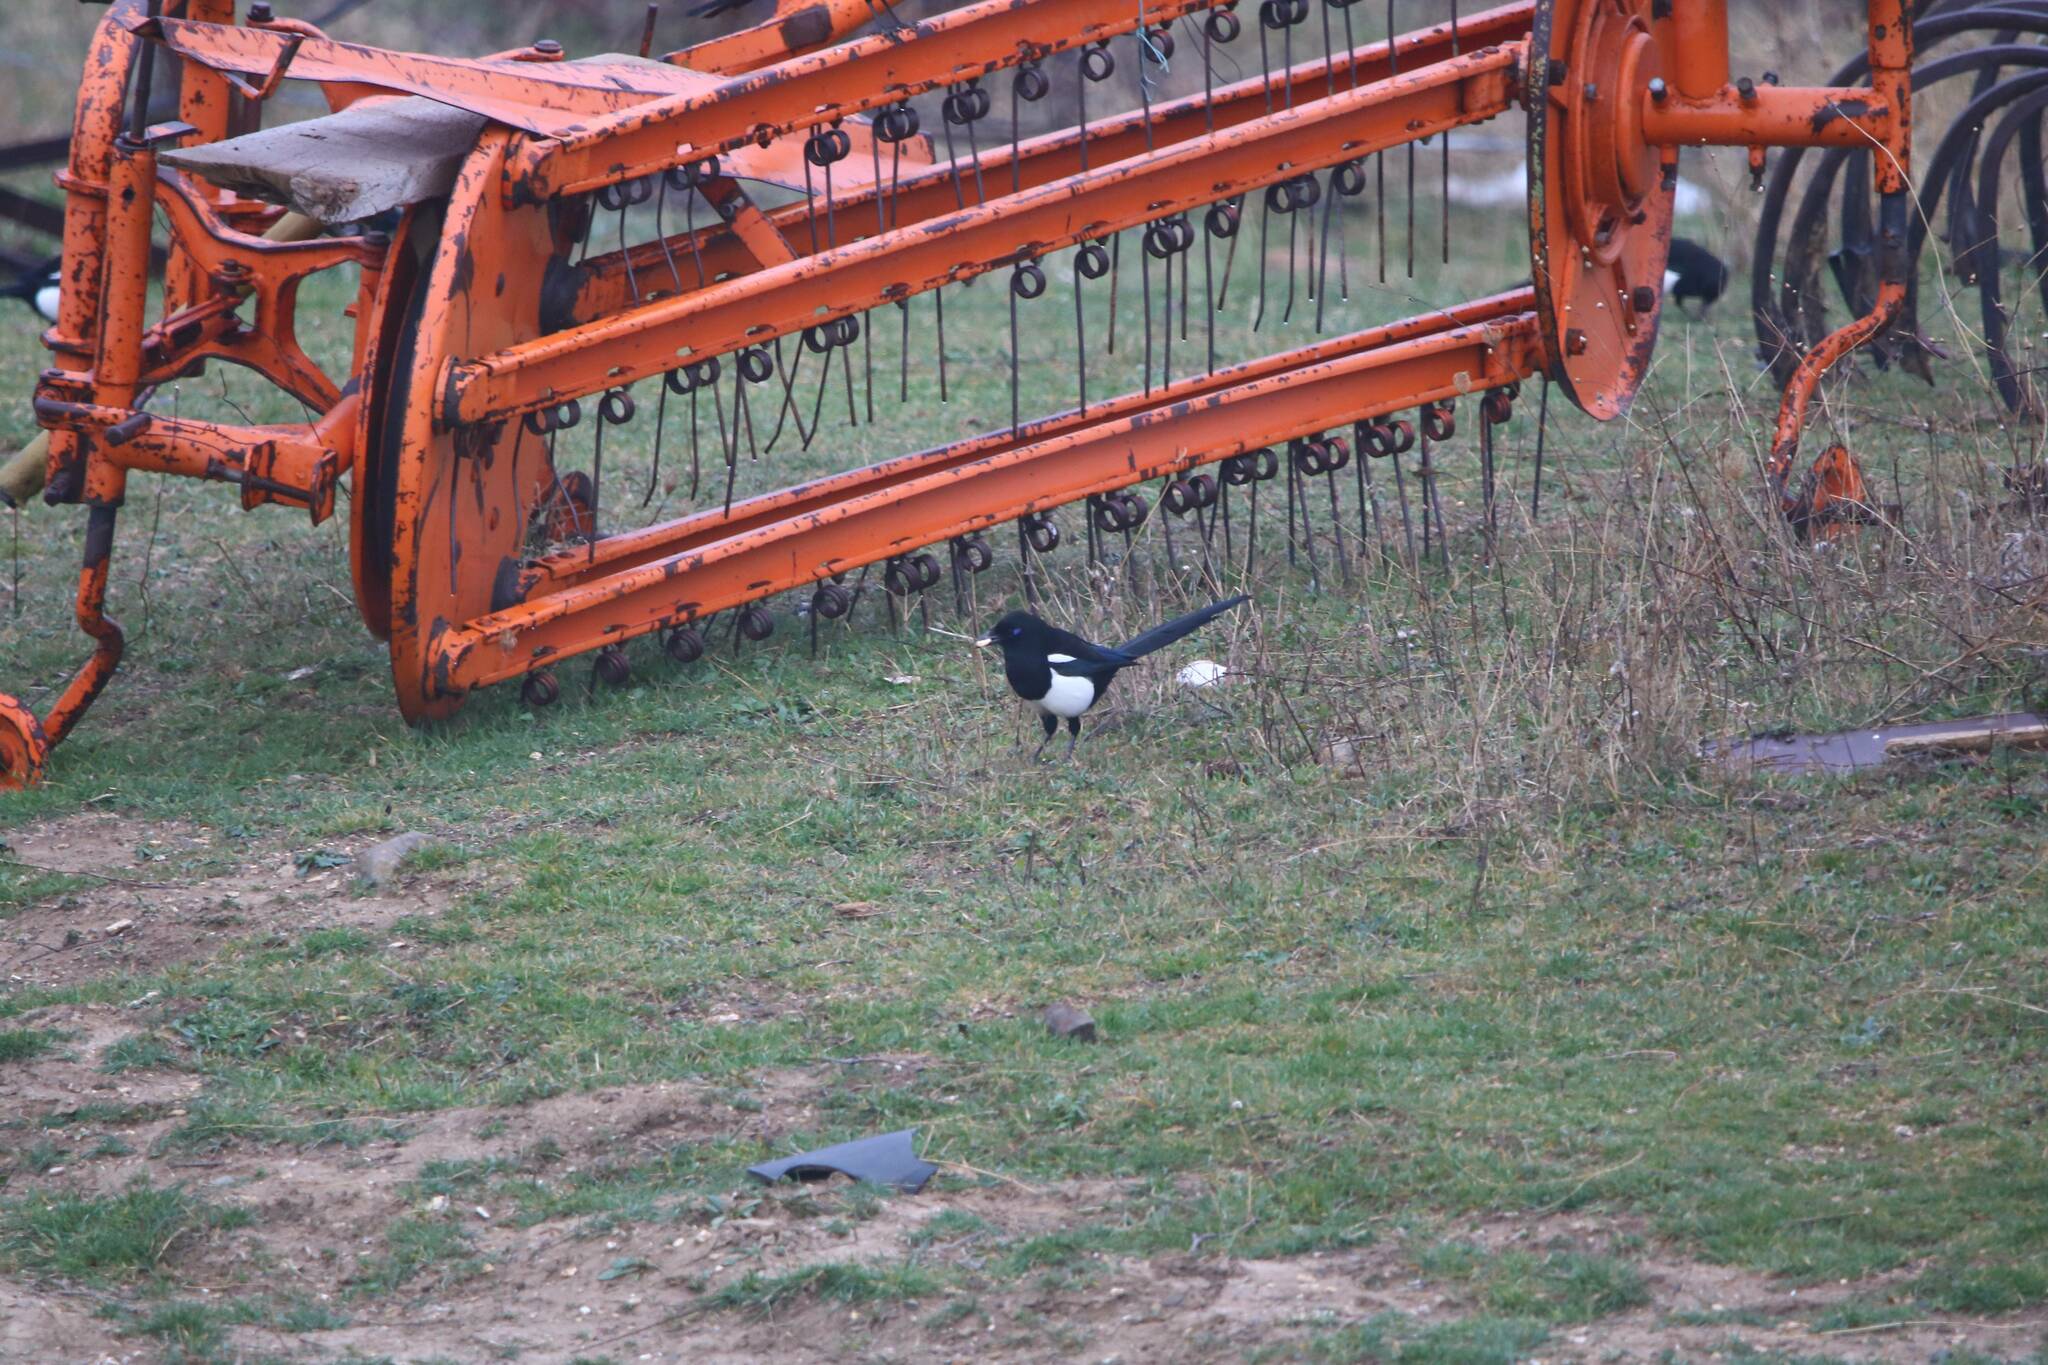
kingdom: Animalia
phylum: Chordata
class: Aves
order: Passeriformes
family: Corvidae
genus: Pica
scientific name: Pica mauritanica
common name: Maghreb magpie
